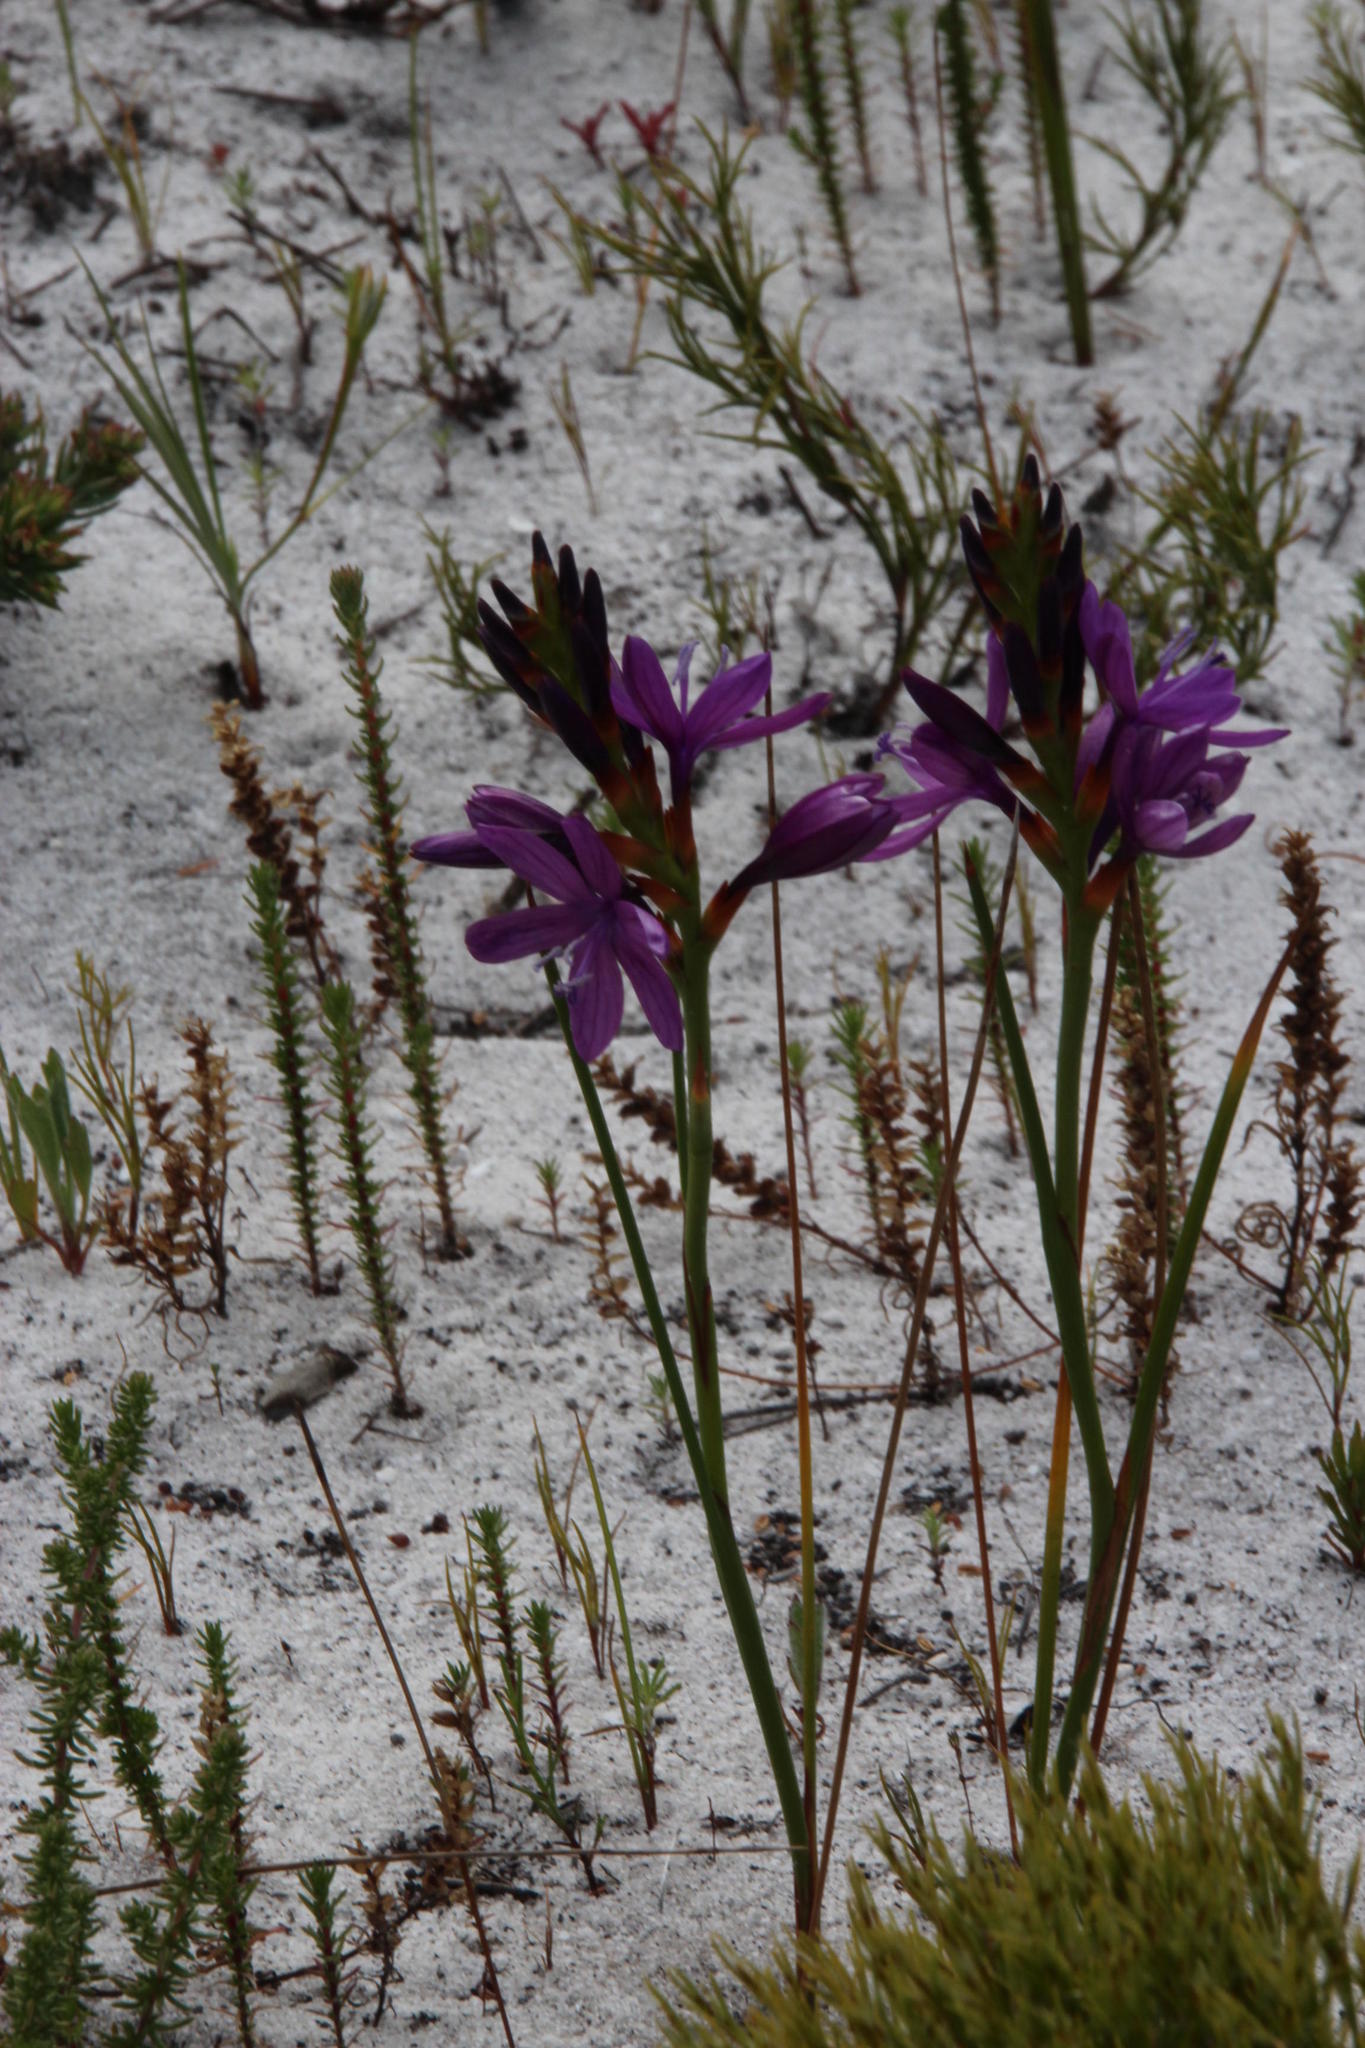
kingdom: Plantae
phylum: Tracheophyta
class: Liliopsida
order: Asparagales
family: Iridaceae
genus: Thereianthus
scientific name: Thereianthus bracteolatus
